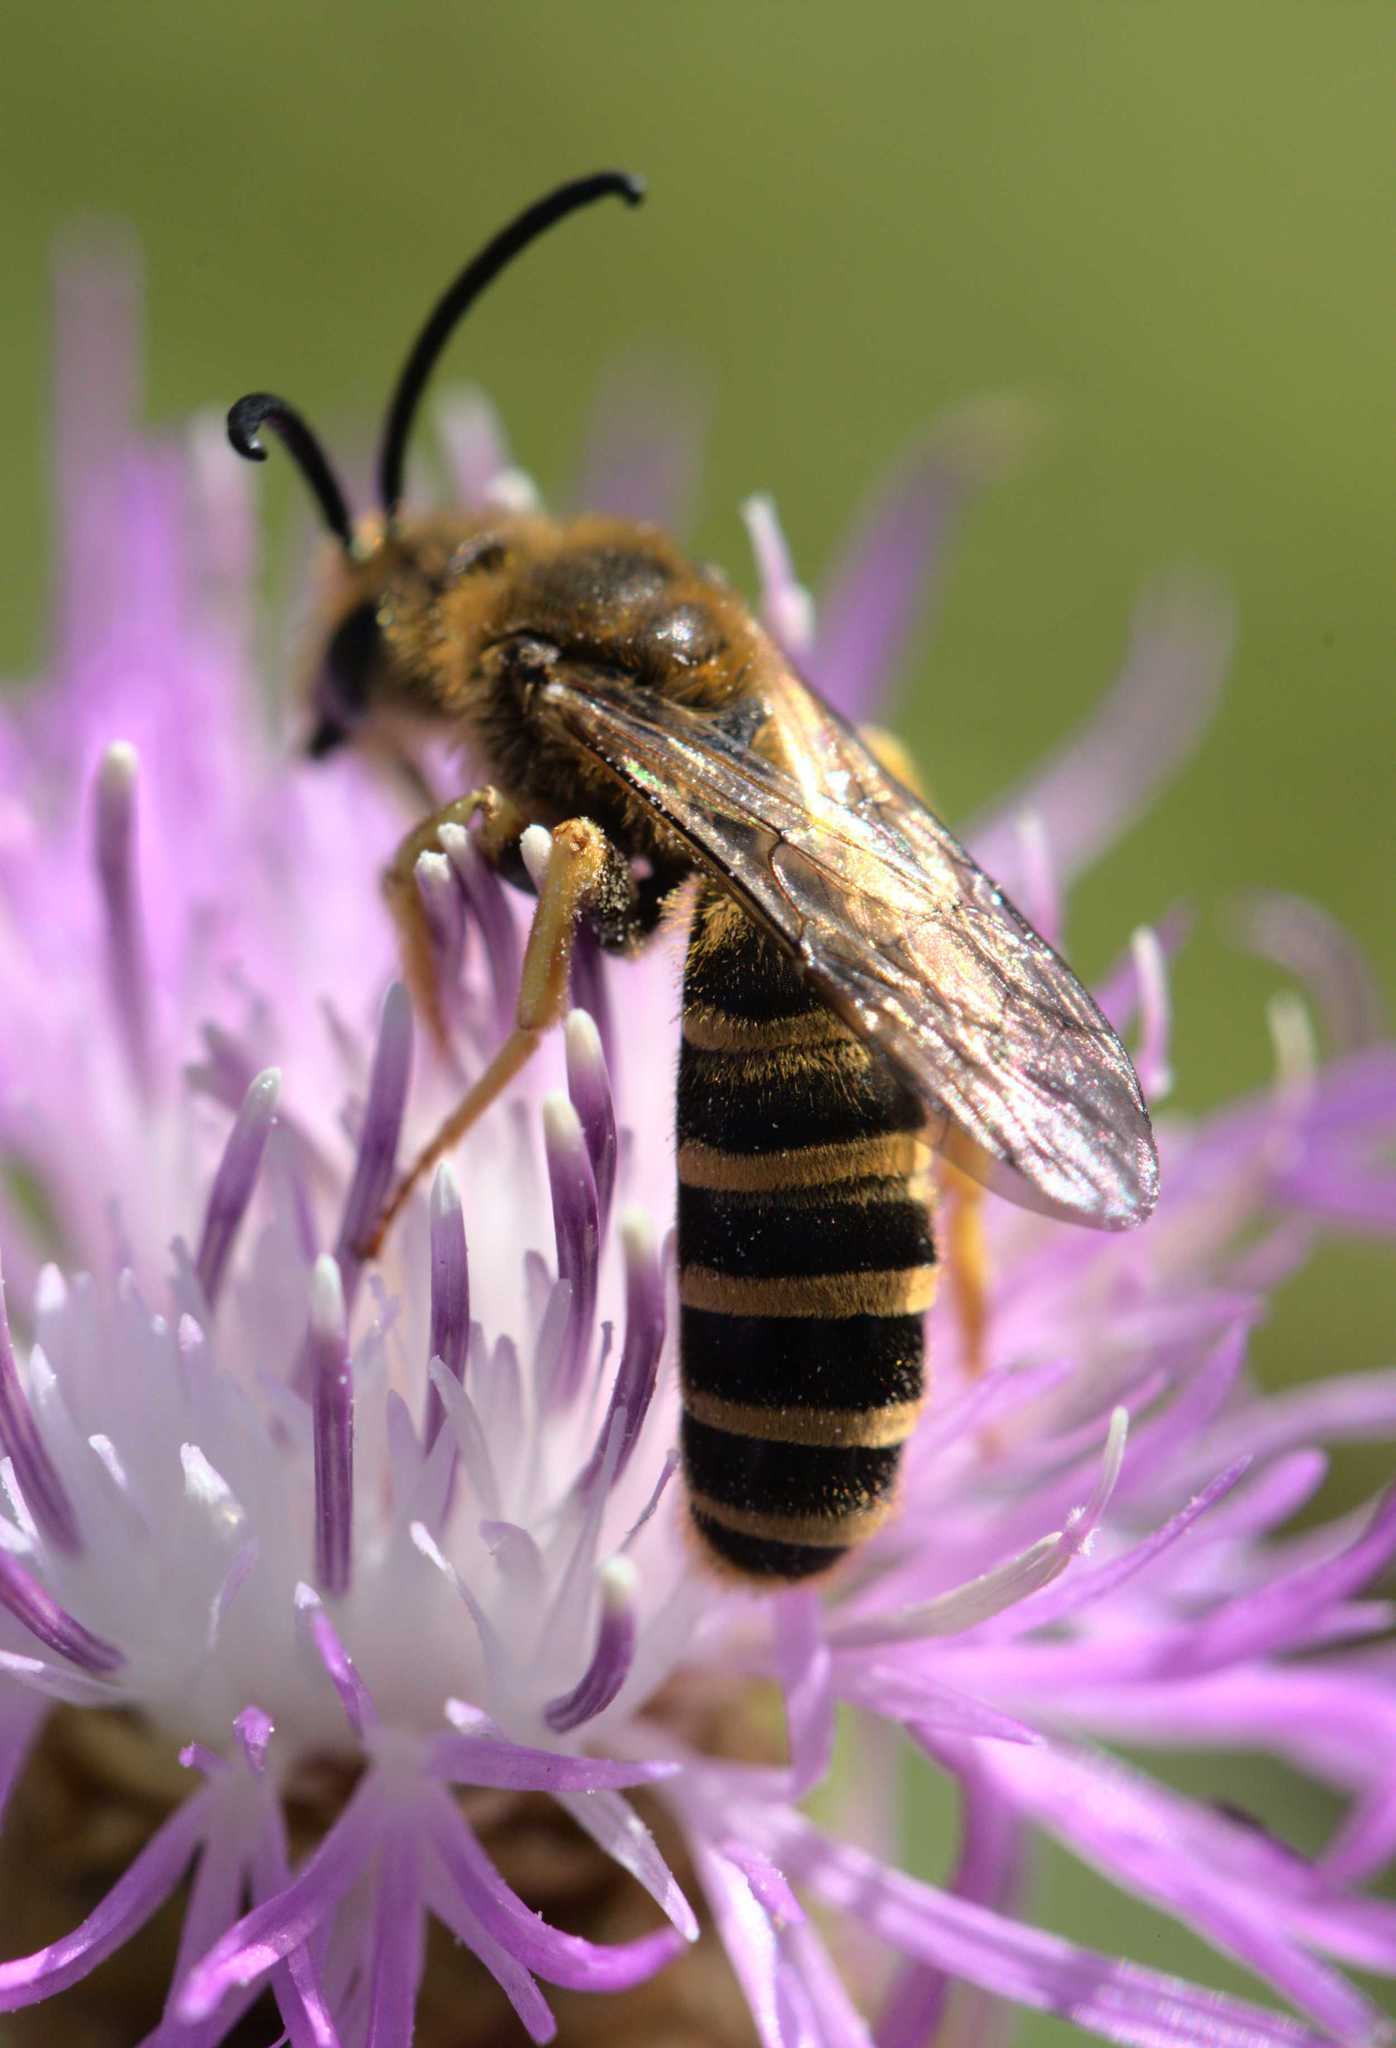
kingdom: Animalia
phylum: Arthropoda
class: Insecta
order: Hymenoptera
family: Halictidae
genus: Halictus
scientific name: Halictus scabiosae
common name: Great banded furrow bee
